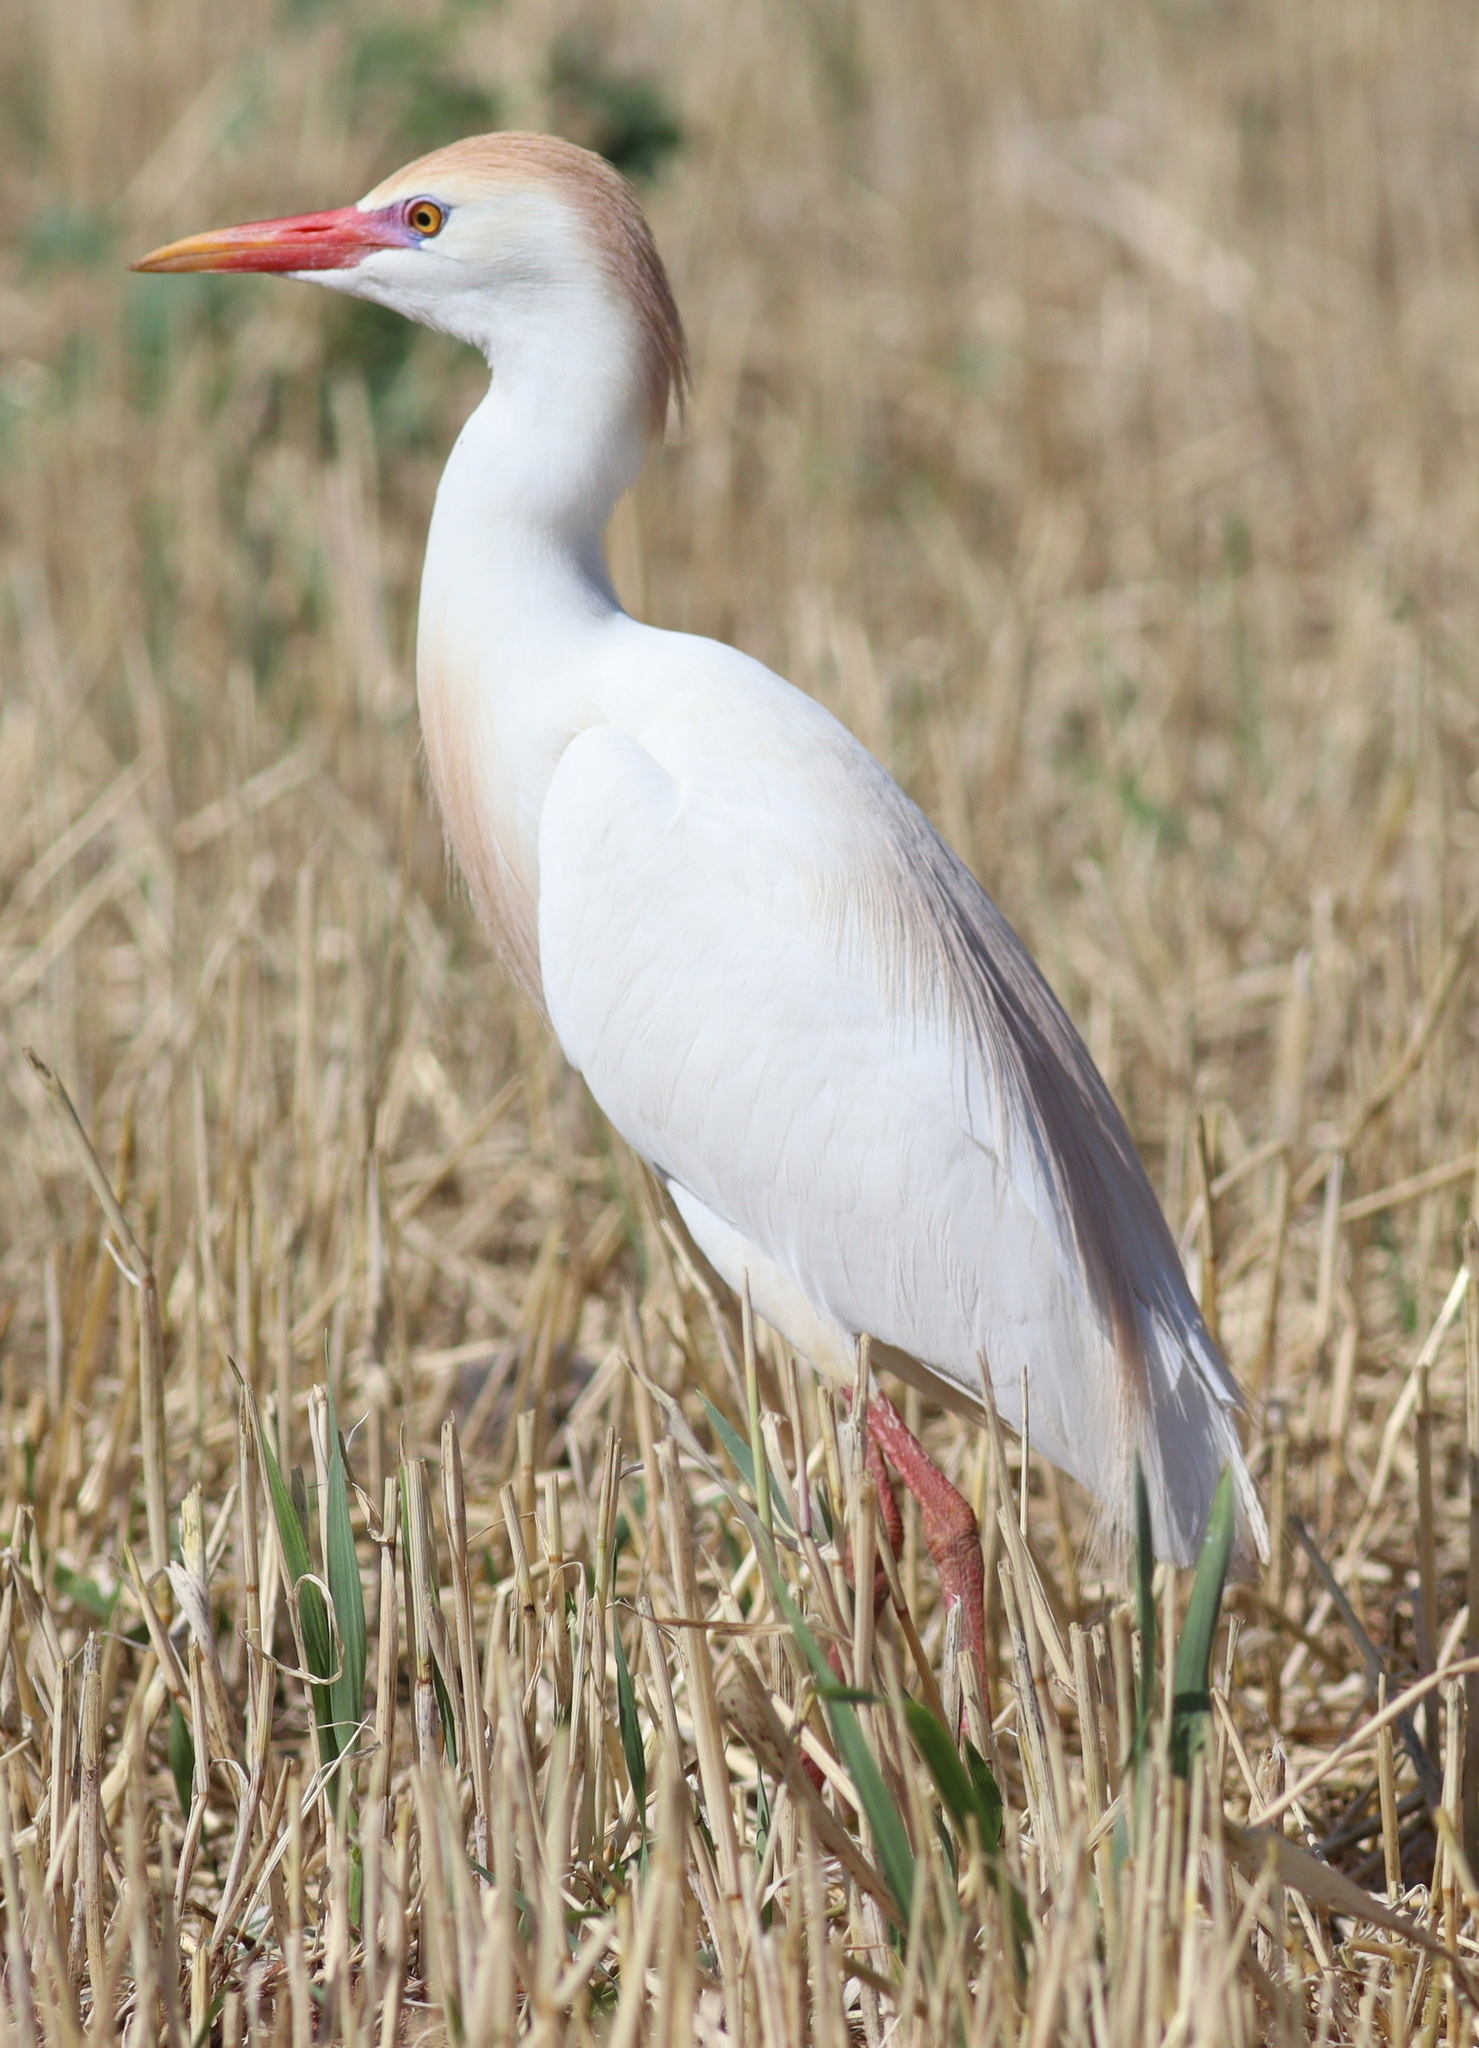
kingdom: Animalia
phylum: Chordata
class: Aves
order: Pelecaniformes
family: Ardeidae
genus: Bubulcus
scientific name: Bubulcus ibis
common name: Cattle egret
